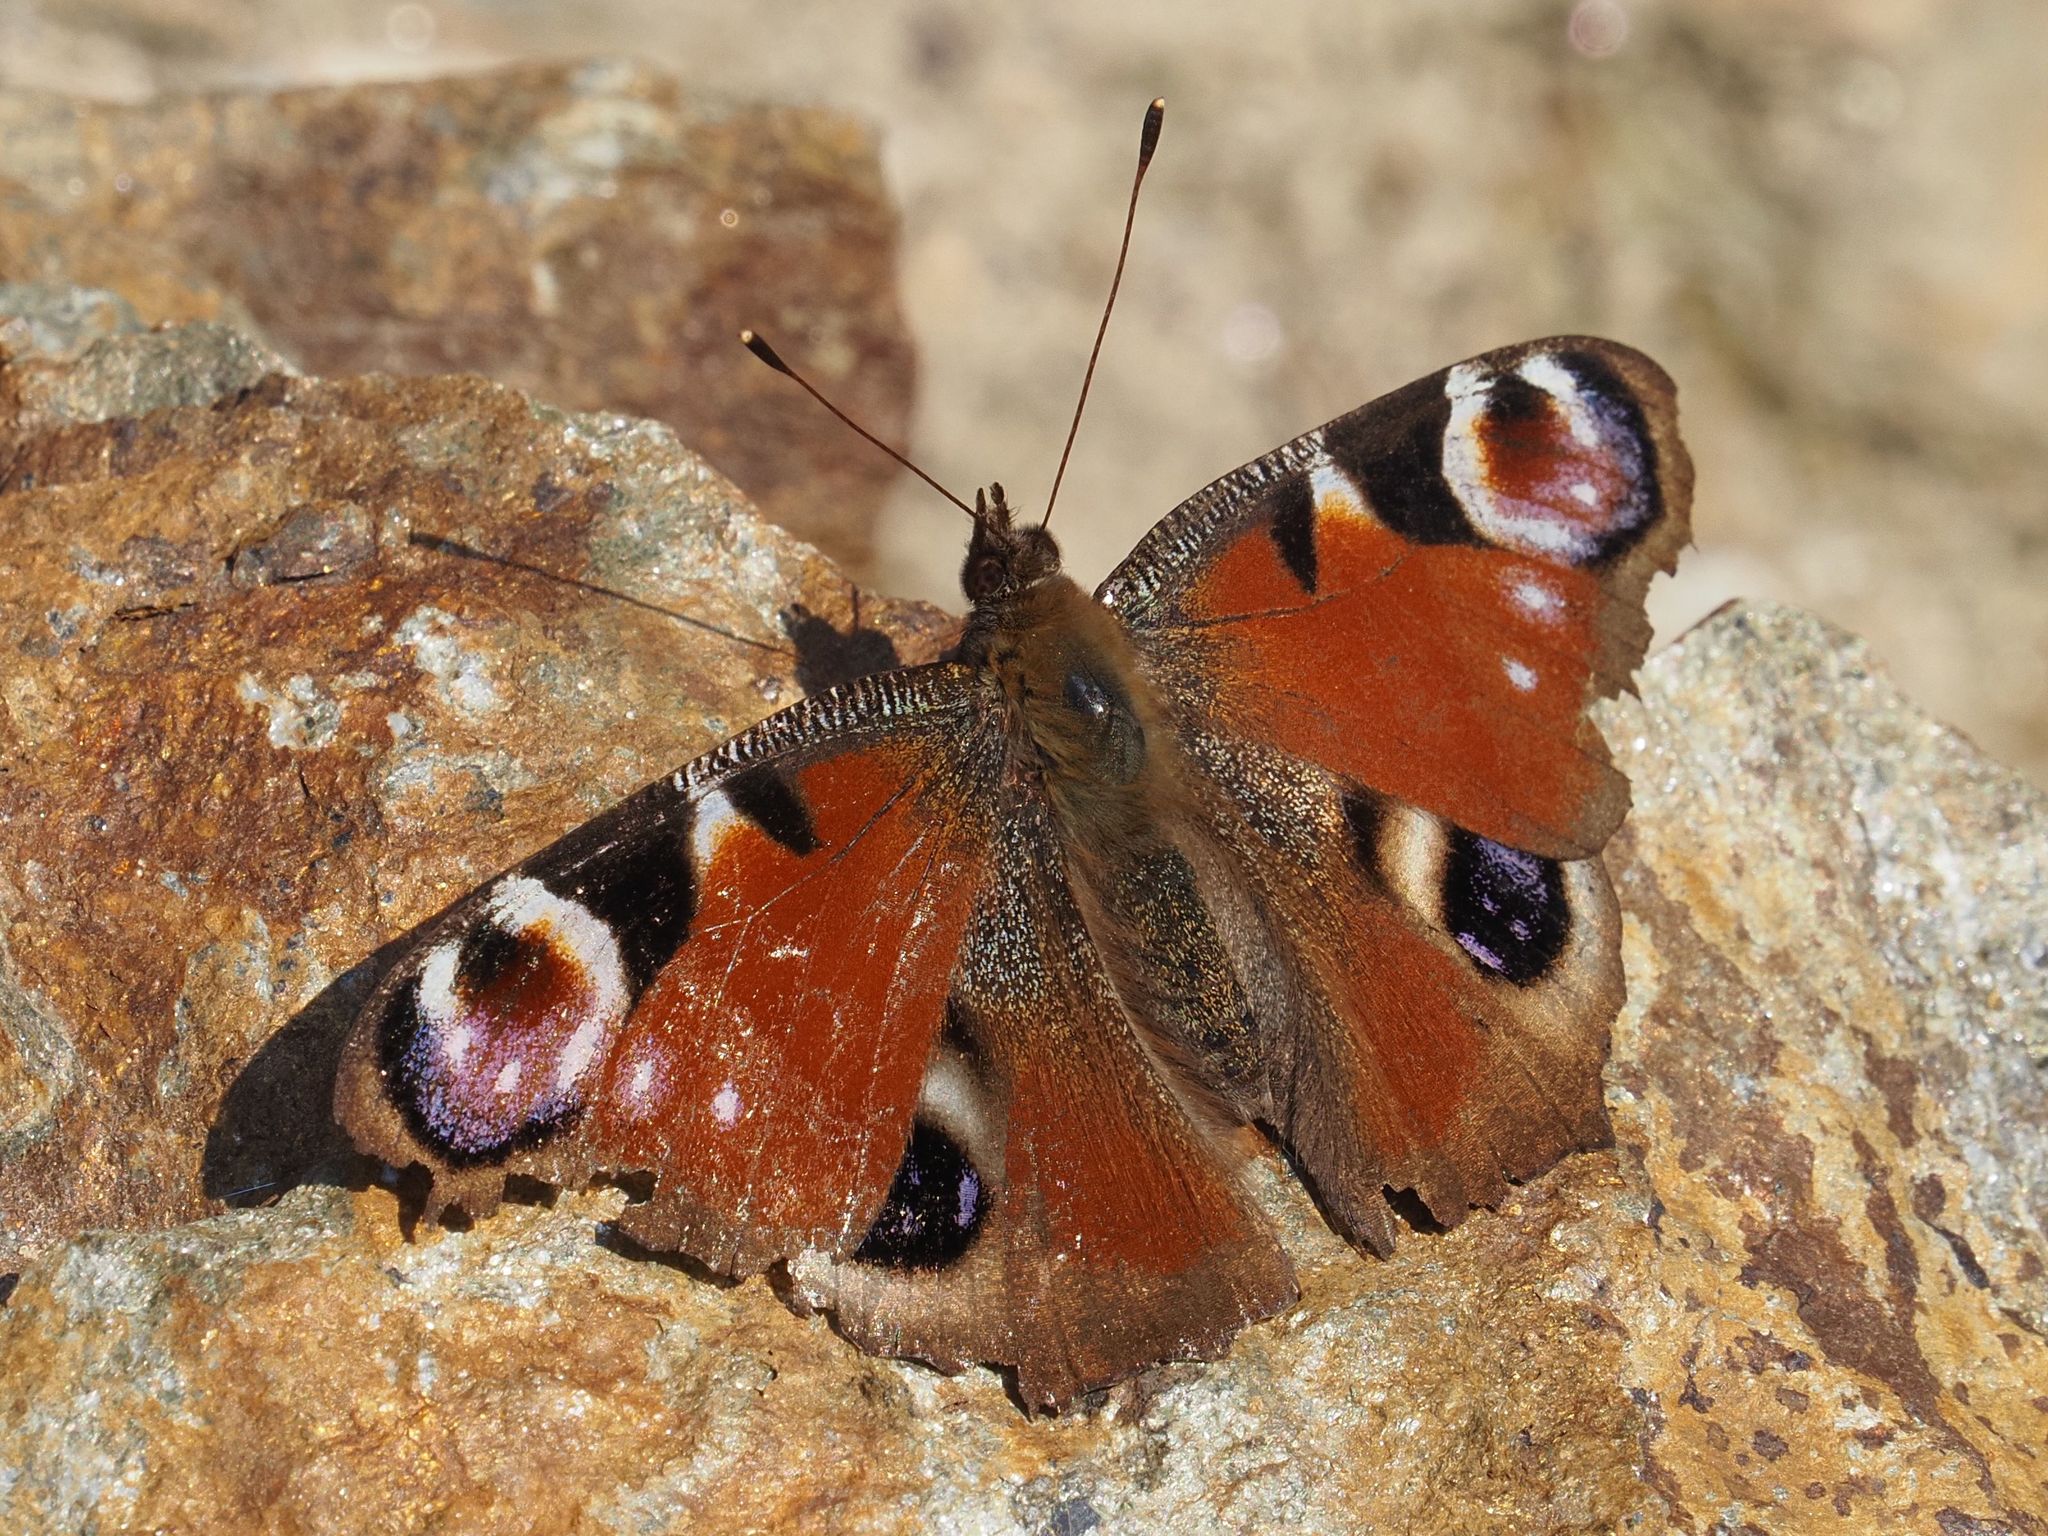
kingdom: Animalia
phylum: Arthropoda
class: Insecta
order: Lepidoptera
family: Nymphalidae
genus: Aglais
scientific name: Aglais io
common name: Peacock
